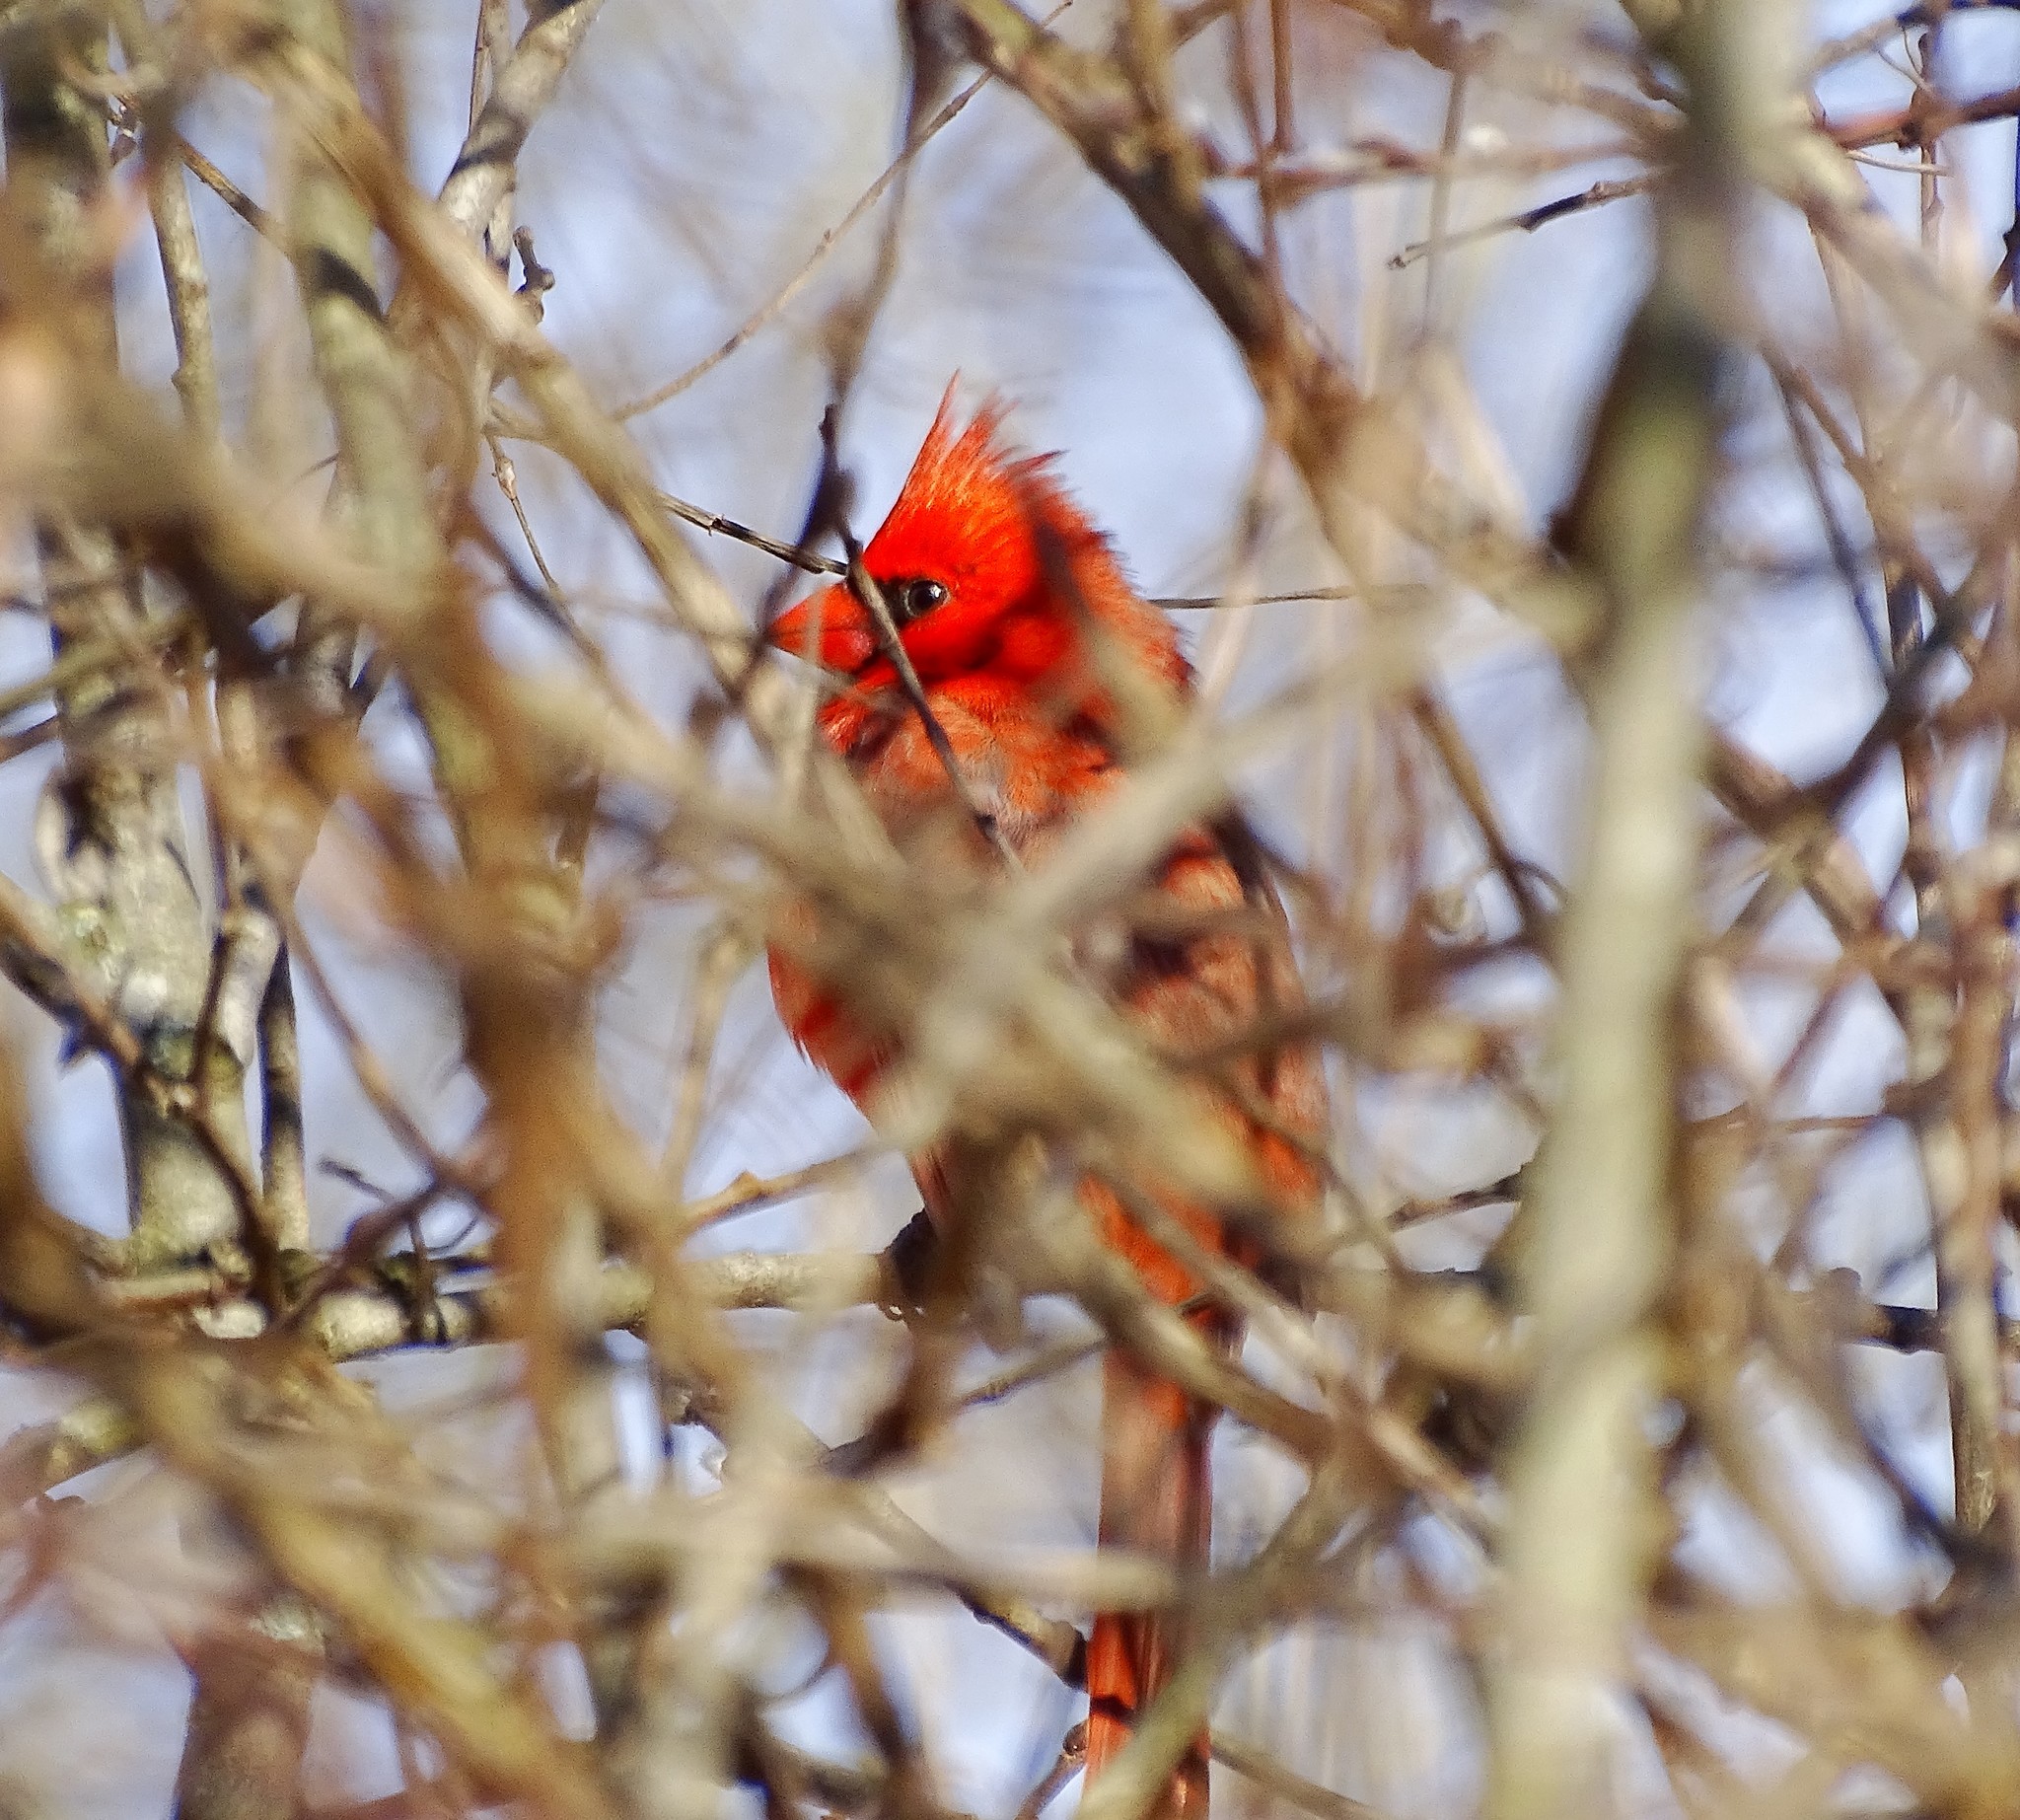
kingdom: Animalia
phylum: Chordata
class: Aves
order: Passeriformes
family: Cardinalidae
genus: Cardinalis
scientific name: Cardinalis cardinalis
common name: Northern cardinal
